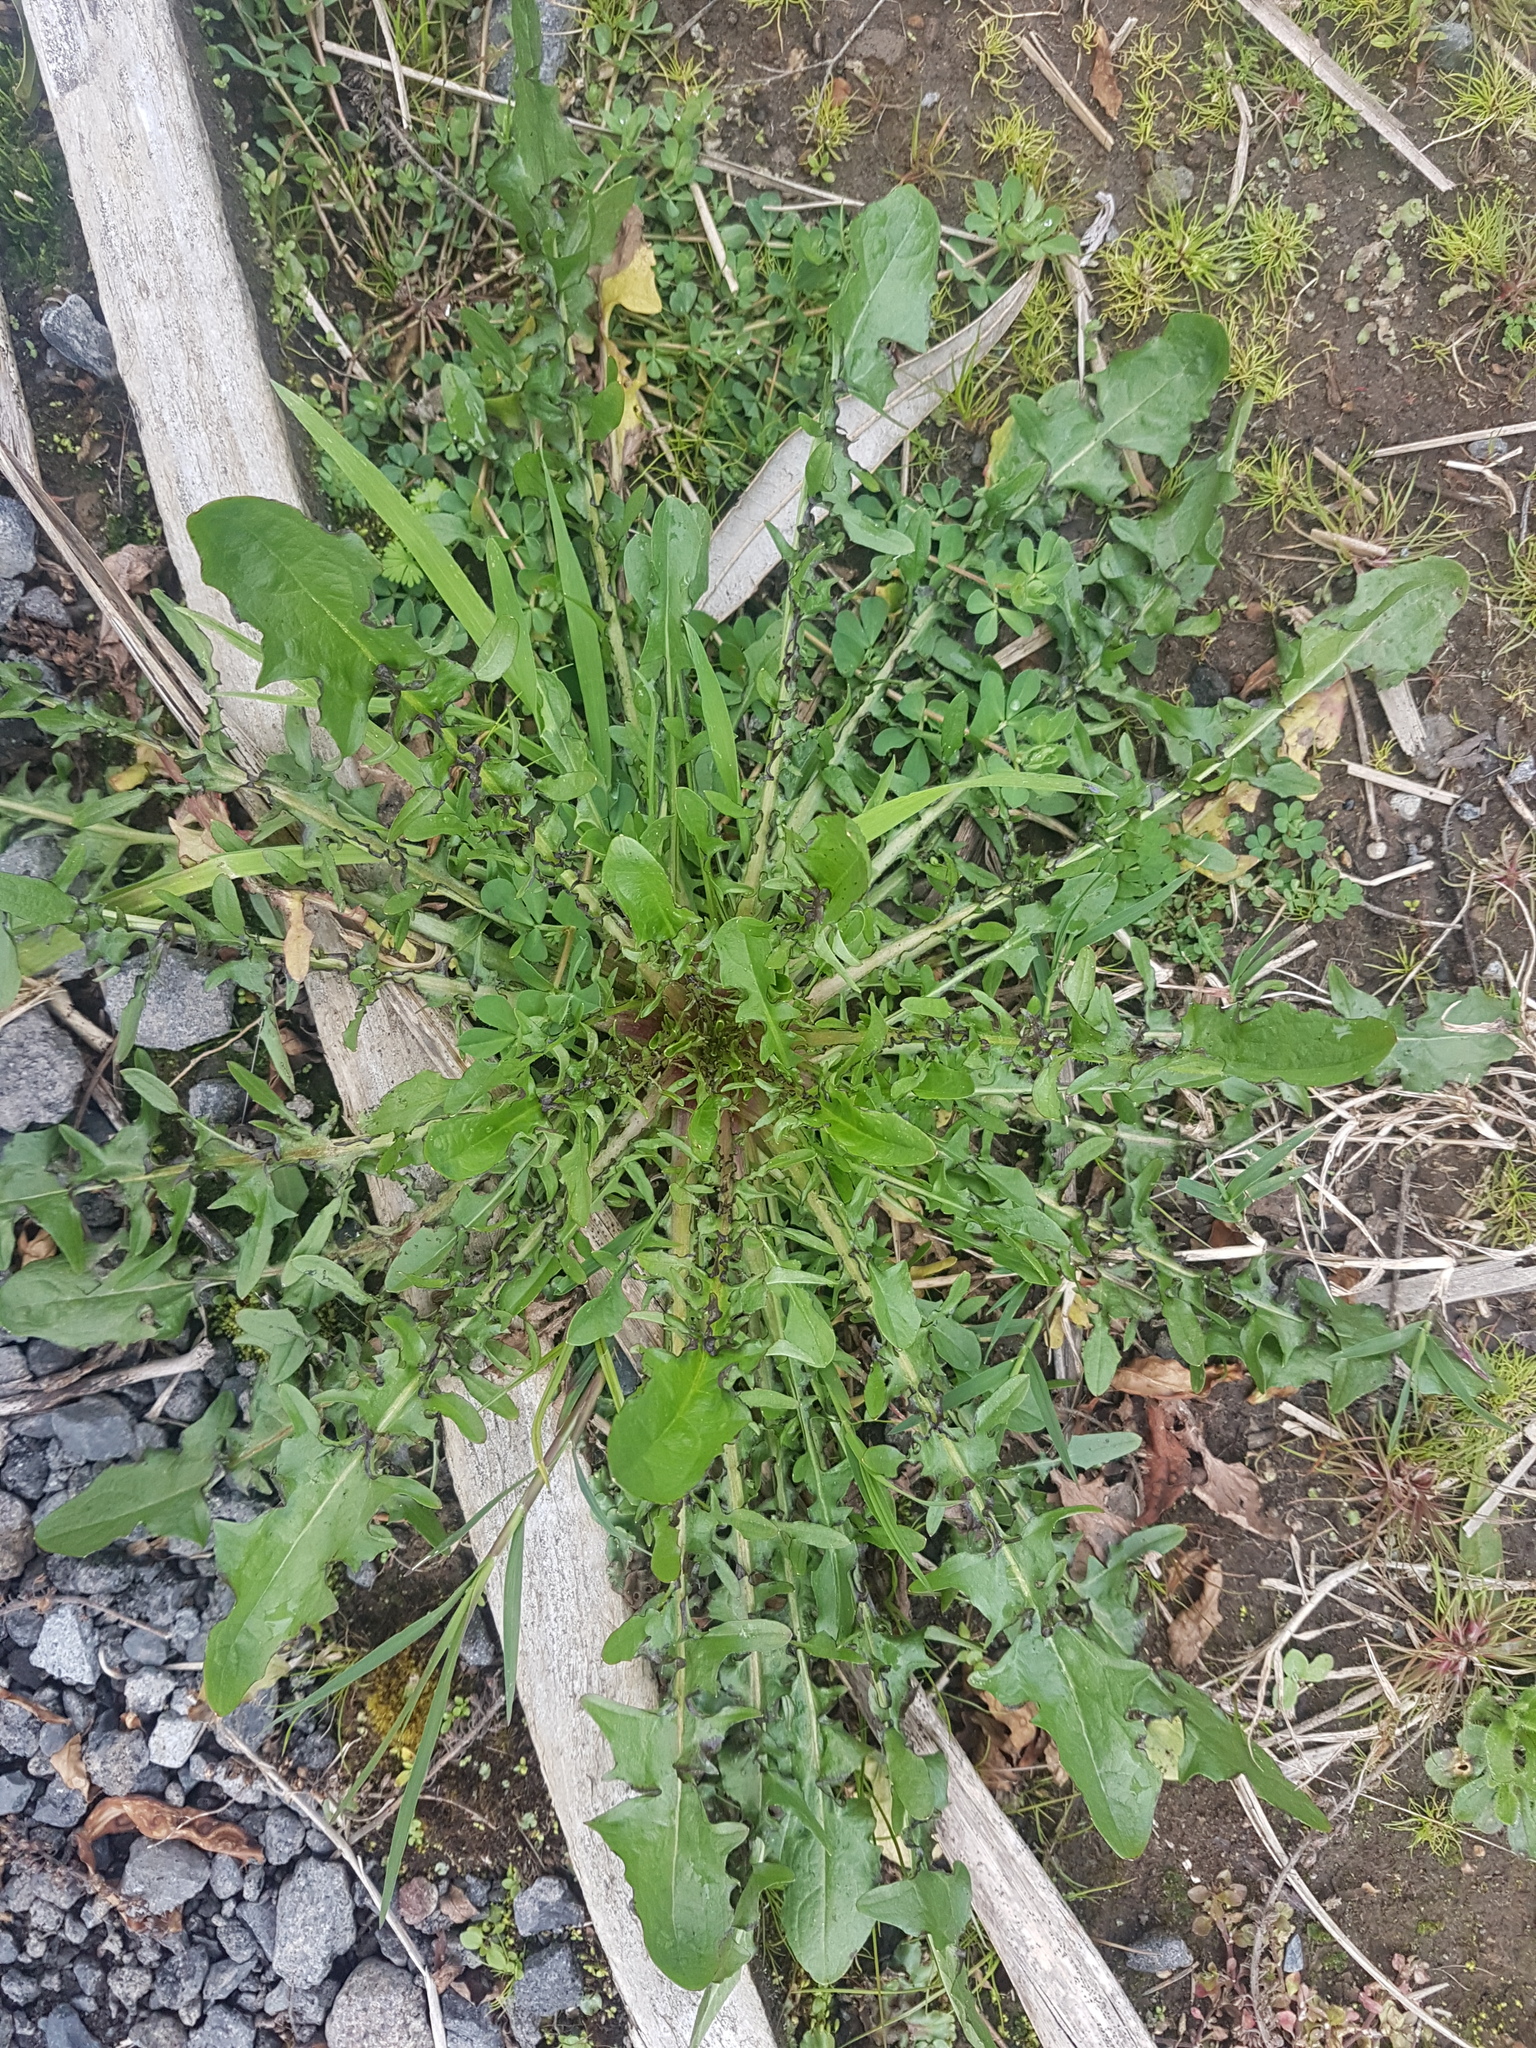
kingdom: Plantae
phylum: Tracheophyta
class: Magnoliopsida
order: Asterales
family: Asteraceae
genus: Crepis
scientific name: Crepis capillaris
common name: Smooth hawksbeard
